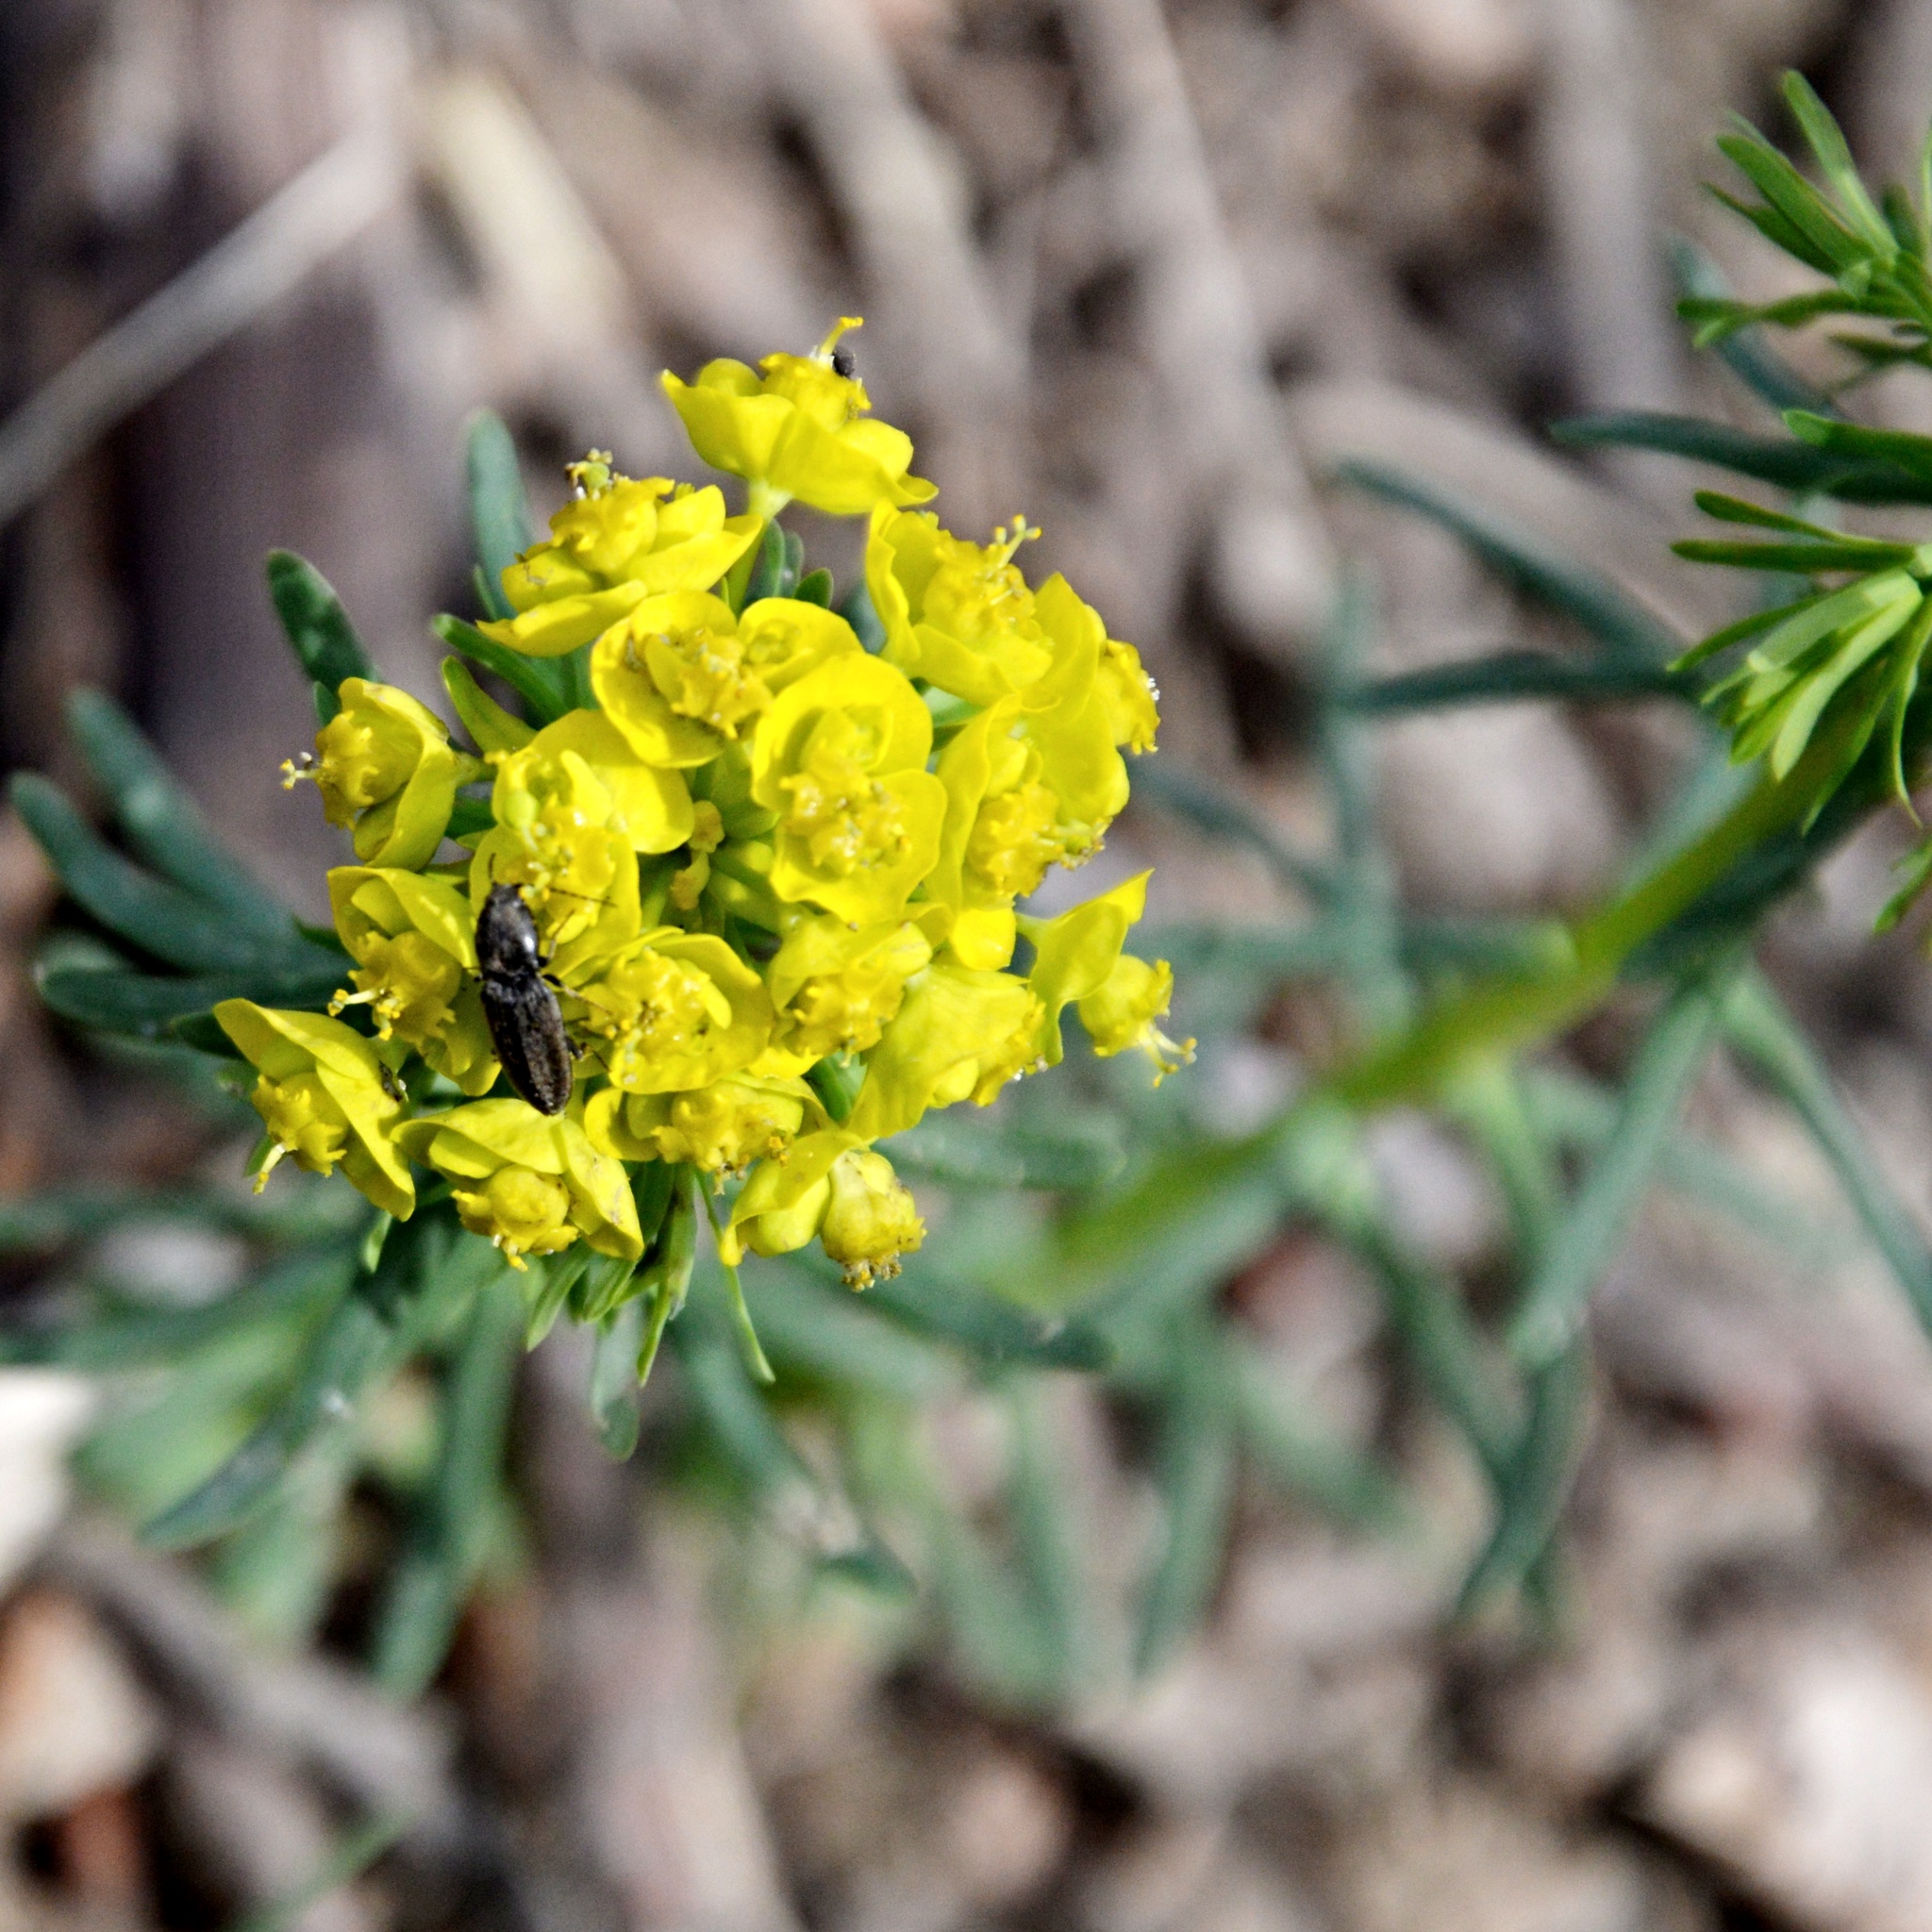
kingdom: Plantae
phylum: Tracheophyta
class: Magnoliopsida
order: Malpighiales
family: Euphorbiaceae
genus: Euphorbia
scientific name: Euphorbia cyparissias
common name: Cypress spurge
